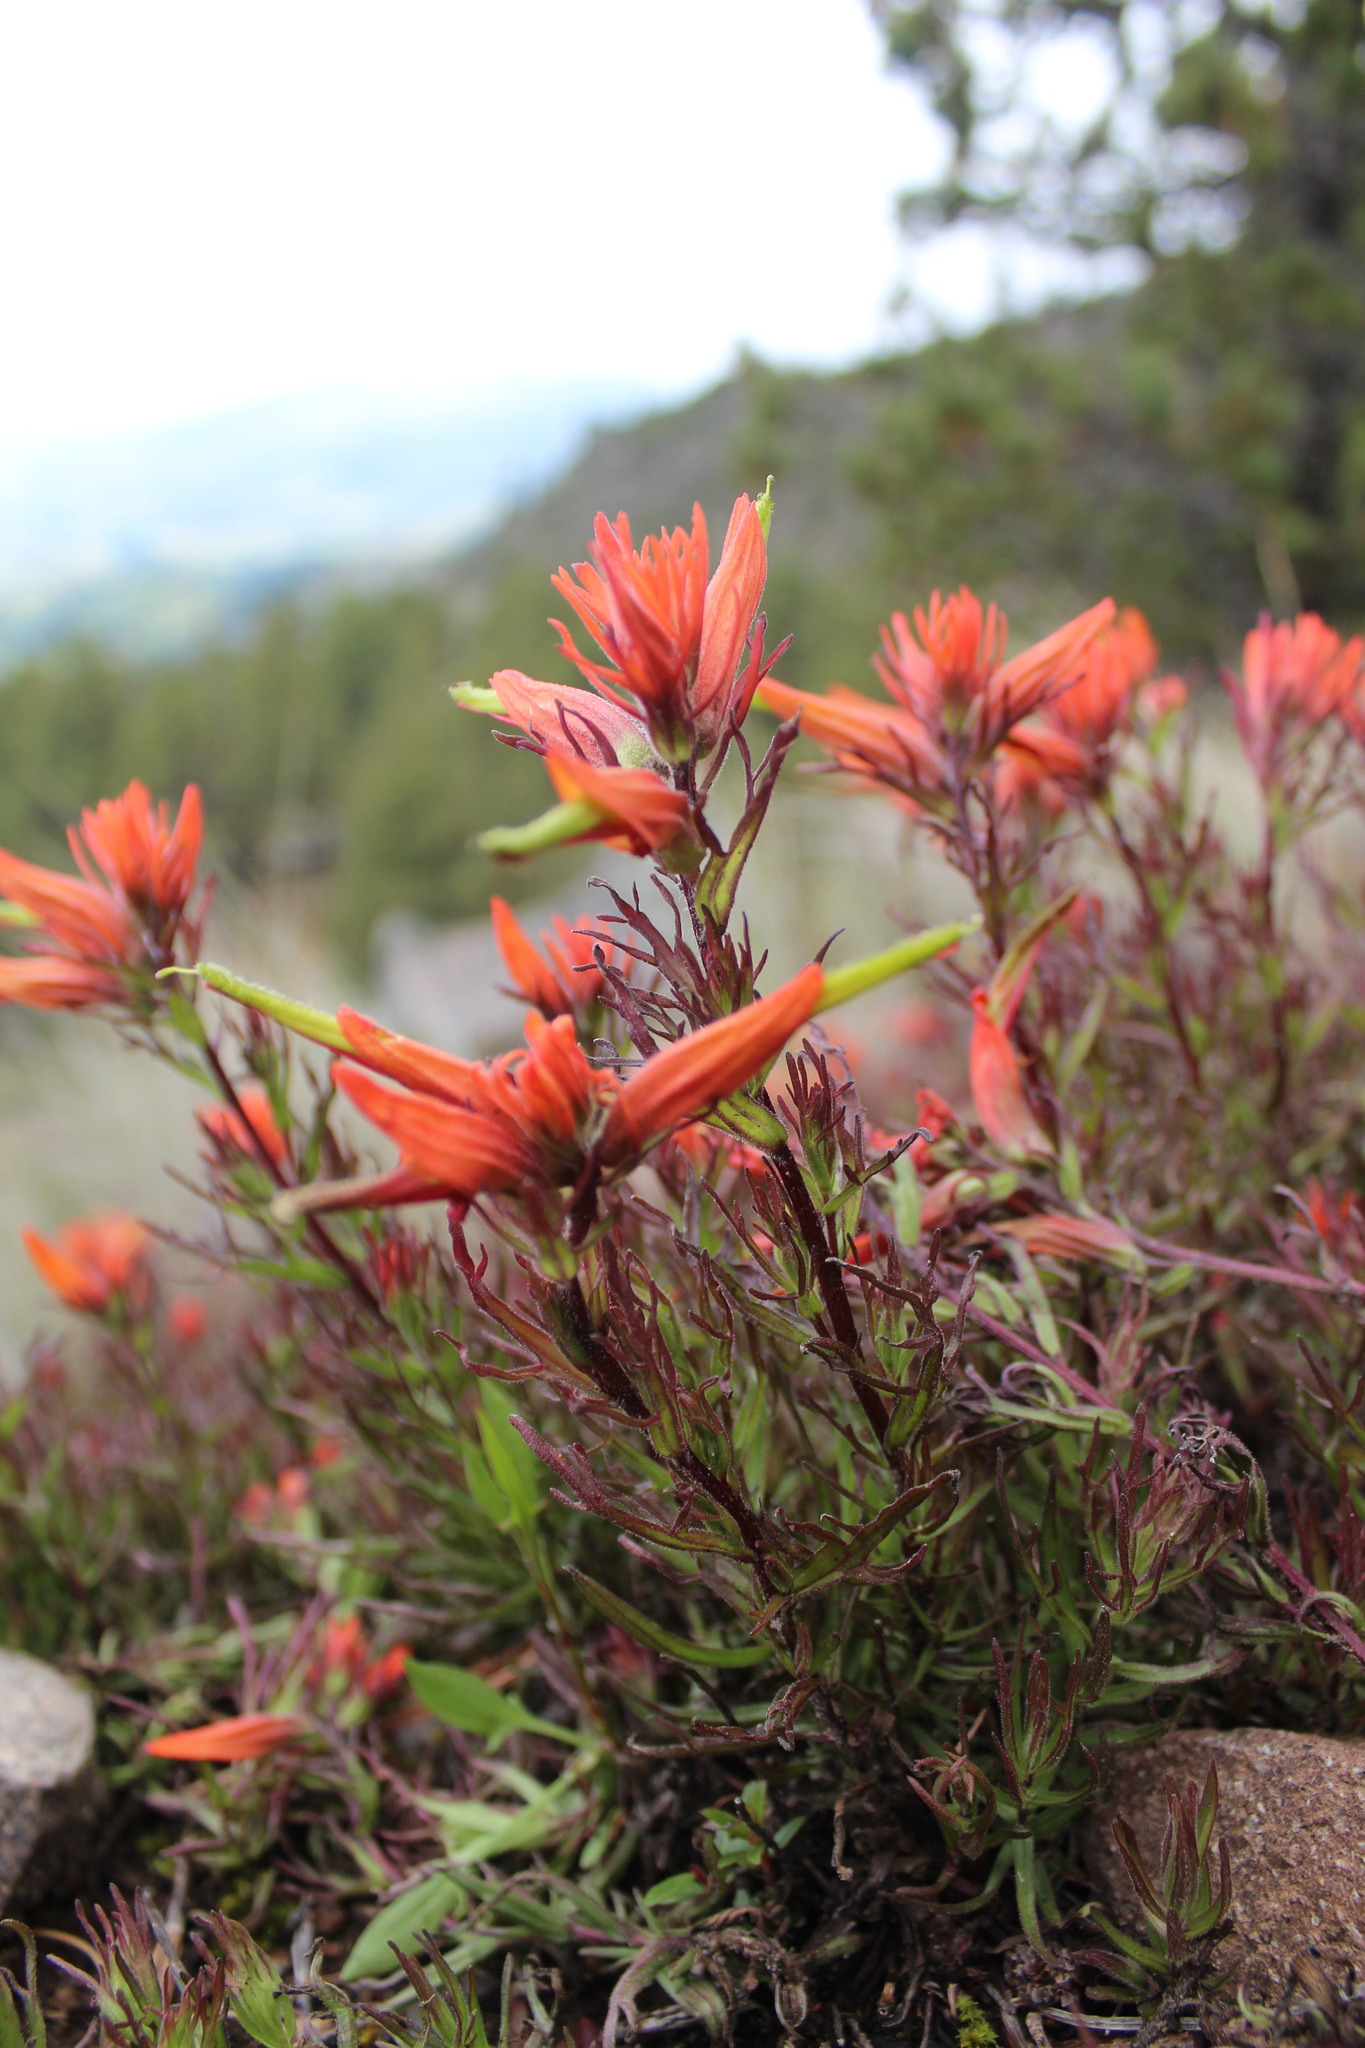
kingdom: Plantae
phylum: Tracheophyta
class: Magnoliopsida
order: Lamiales
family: Orobanchaceae
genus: Castilleja
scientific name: Castilleja pectinata
